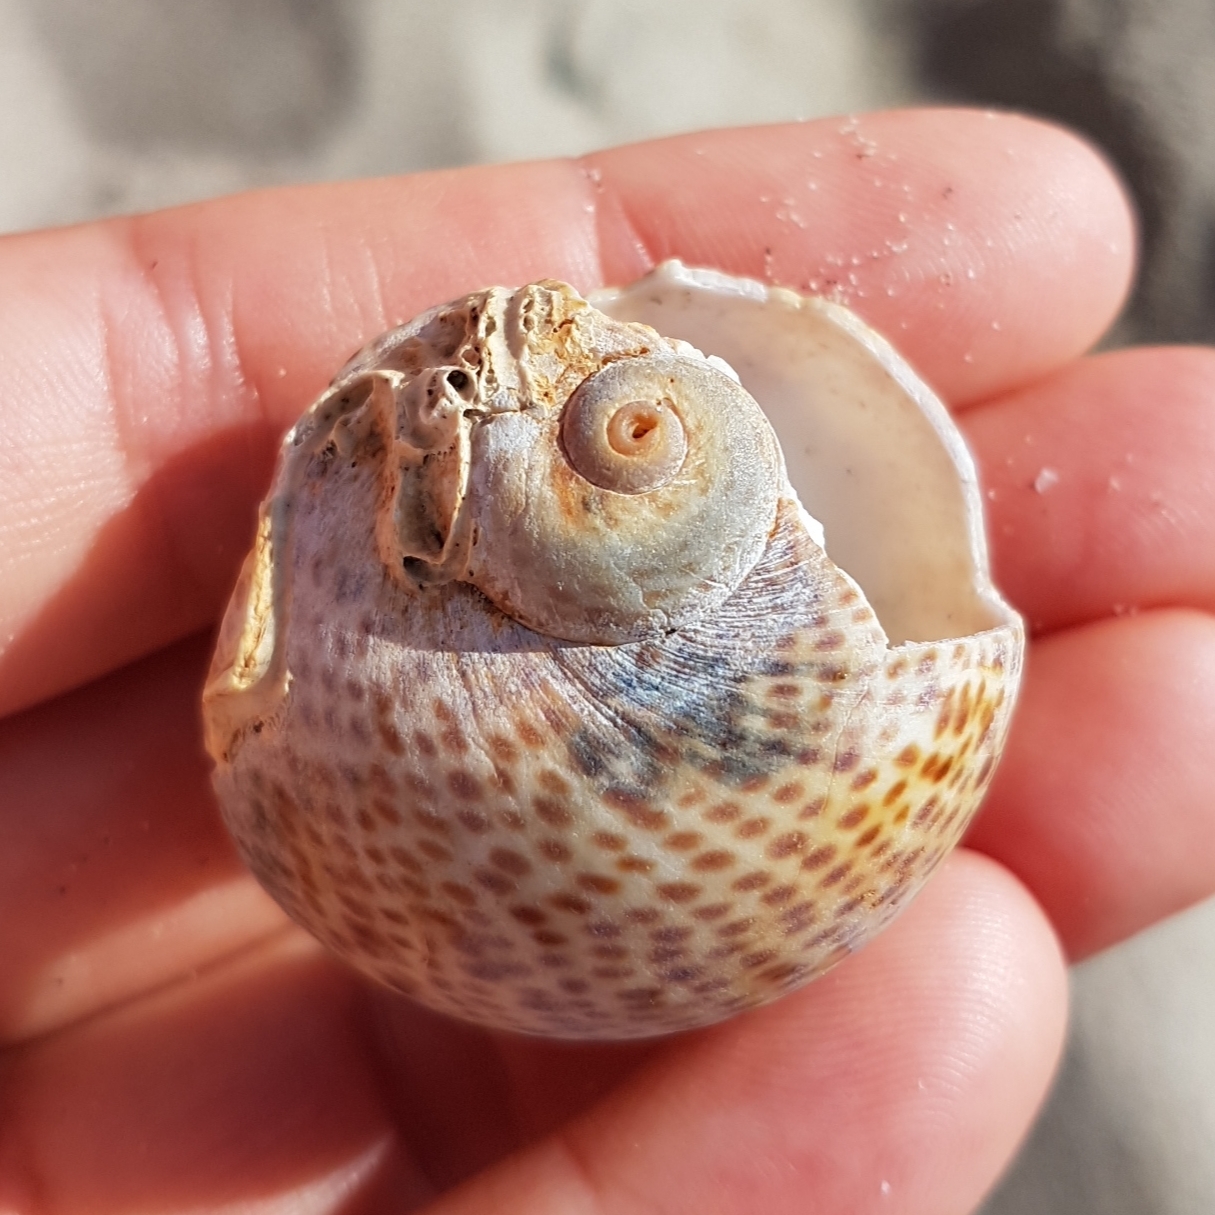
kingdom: Animalia
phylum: Mollusca
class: Gastropoda
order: Littorinimorpha
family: Naticidae
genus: Naticarius
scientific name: Naticarius stercusmuscarum
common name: Fly-speck moonsnail
